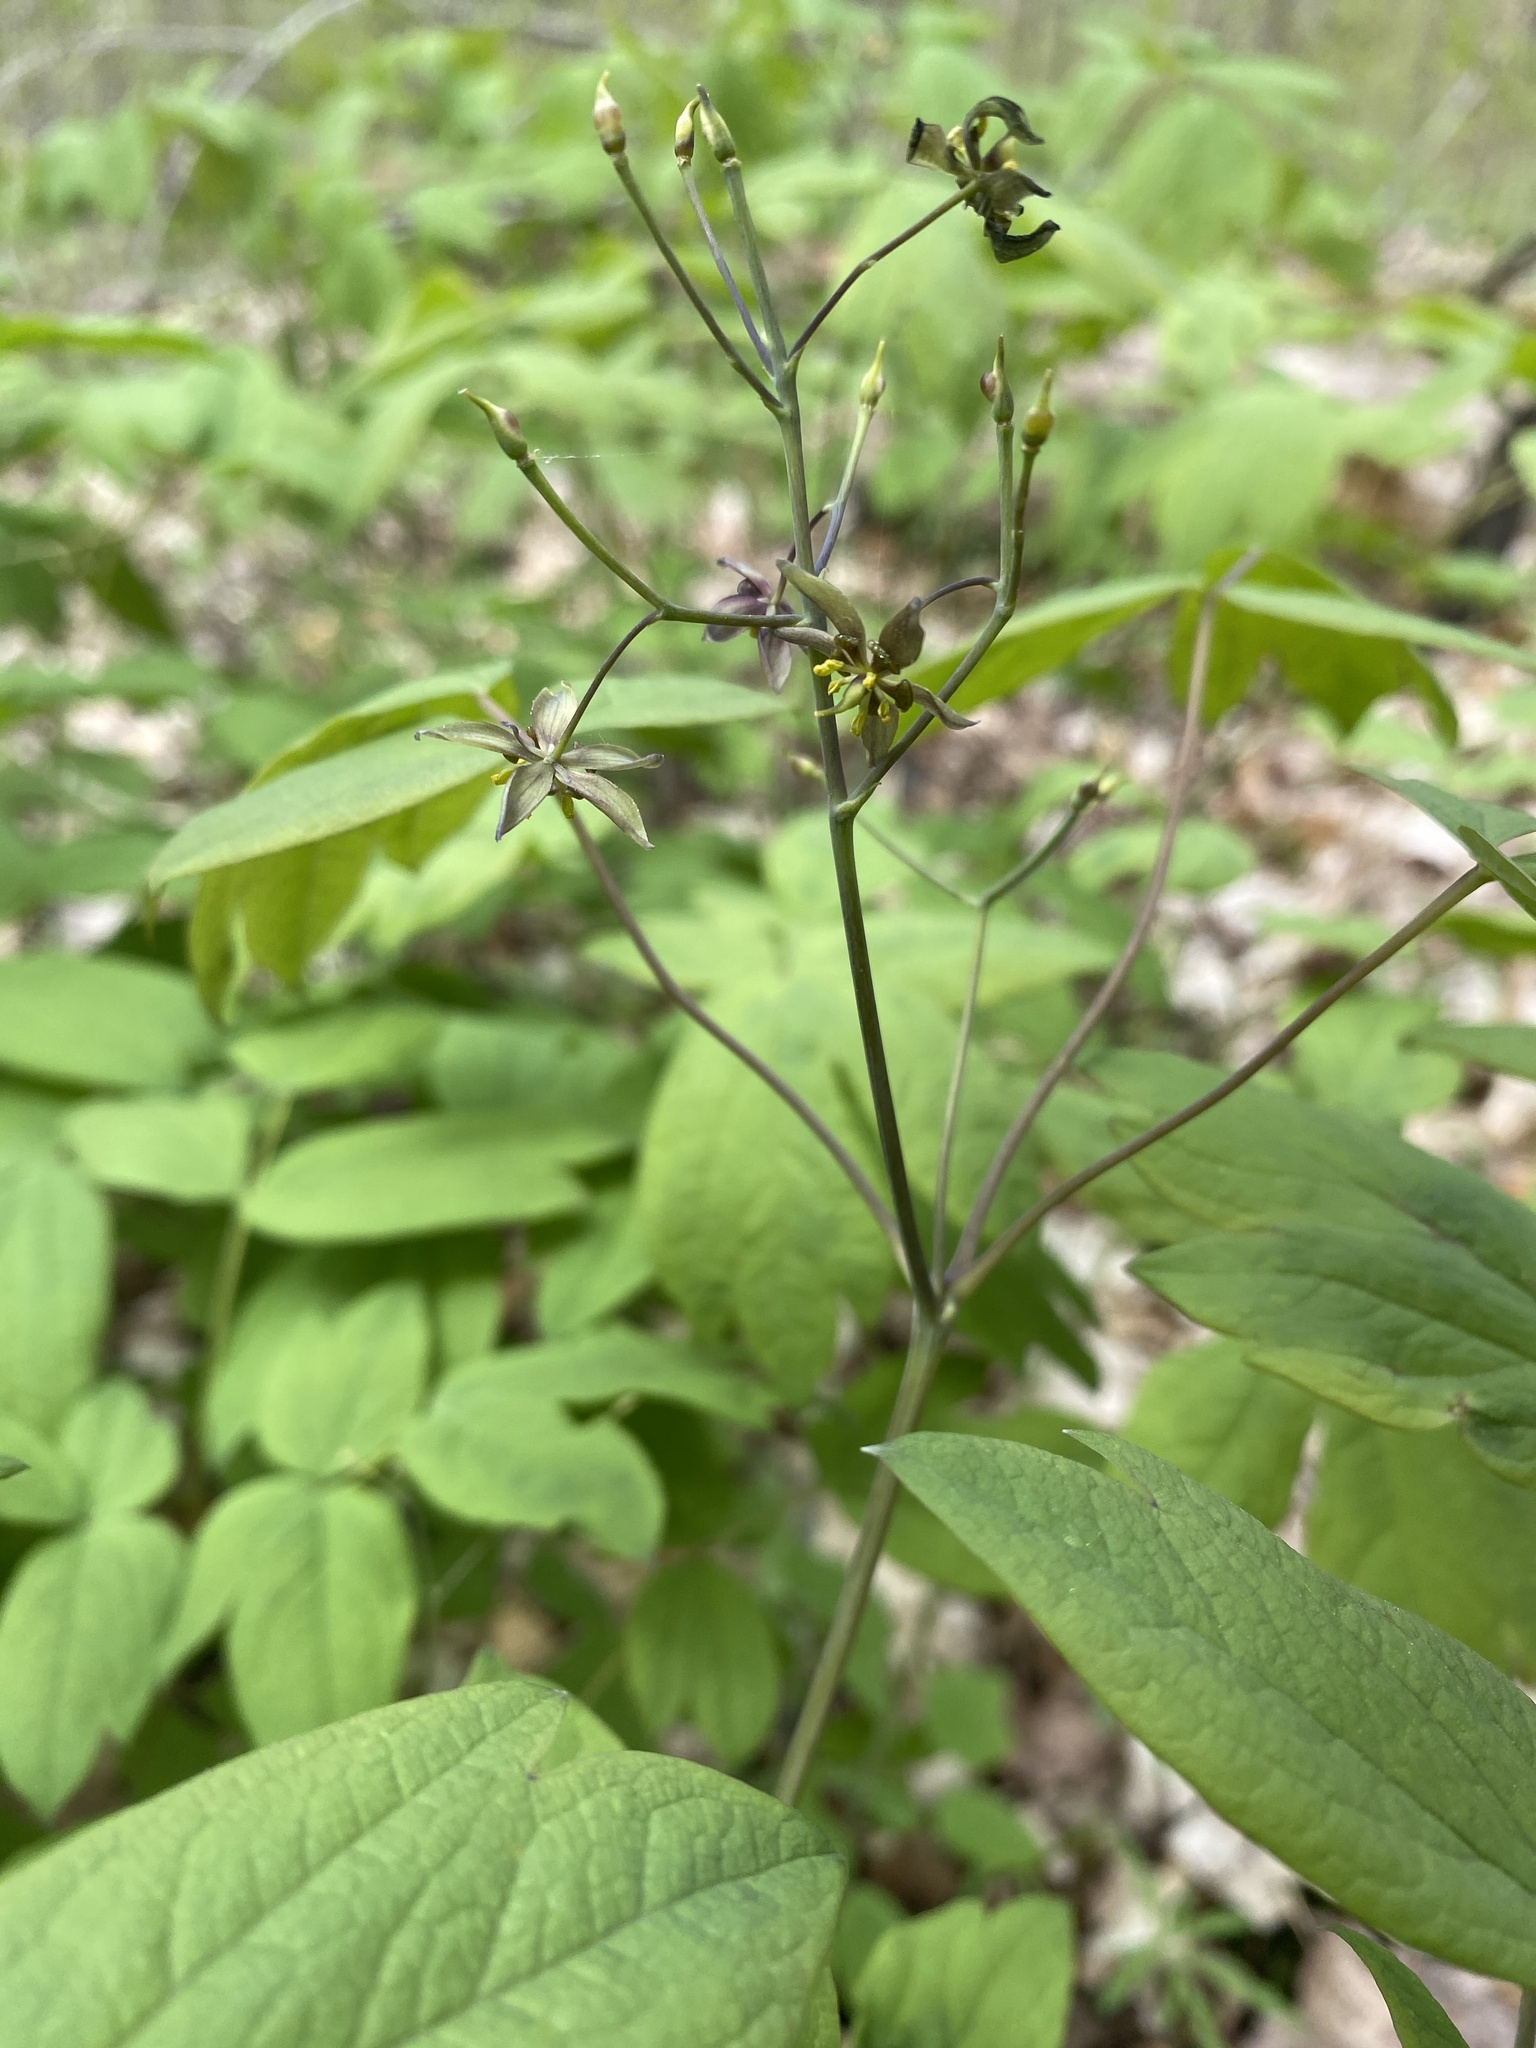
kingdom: Plantae
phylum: Tracheophyta
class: Magnoliopsida
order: Ranunculales
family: Berberidaceae
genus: Caulophyllum
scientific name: Caulophyllum thalictroides
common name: Blue cohosh
